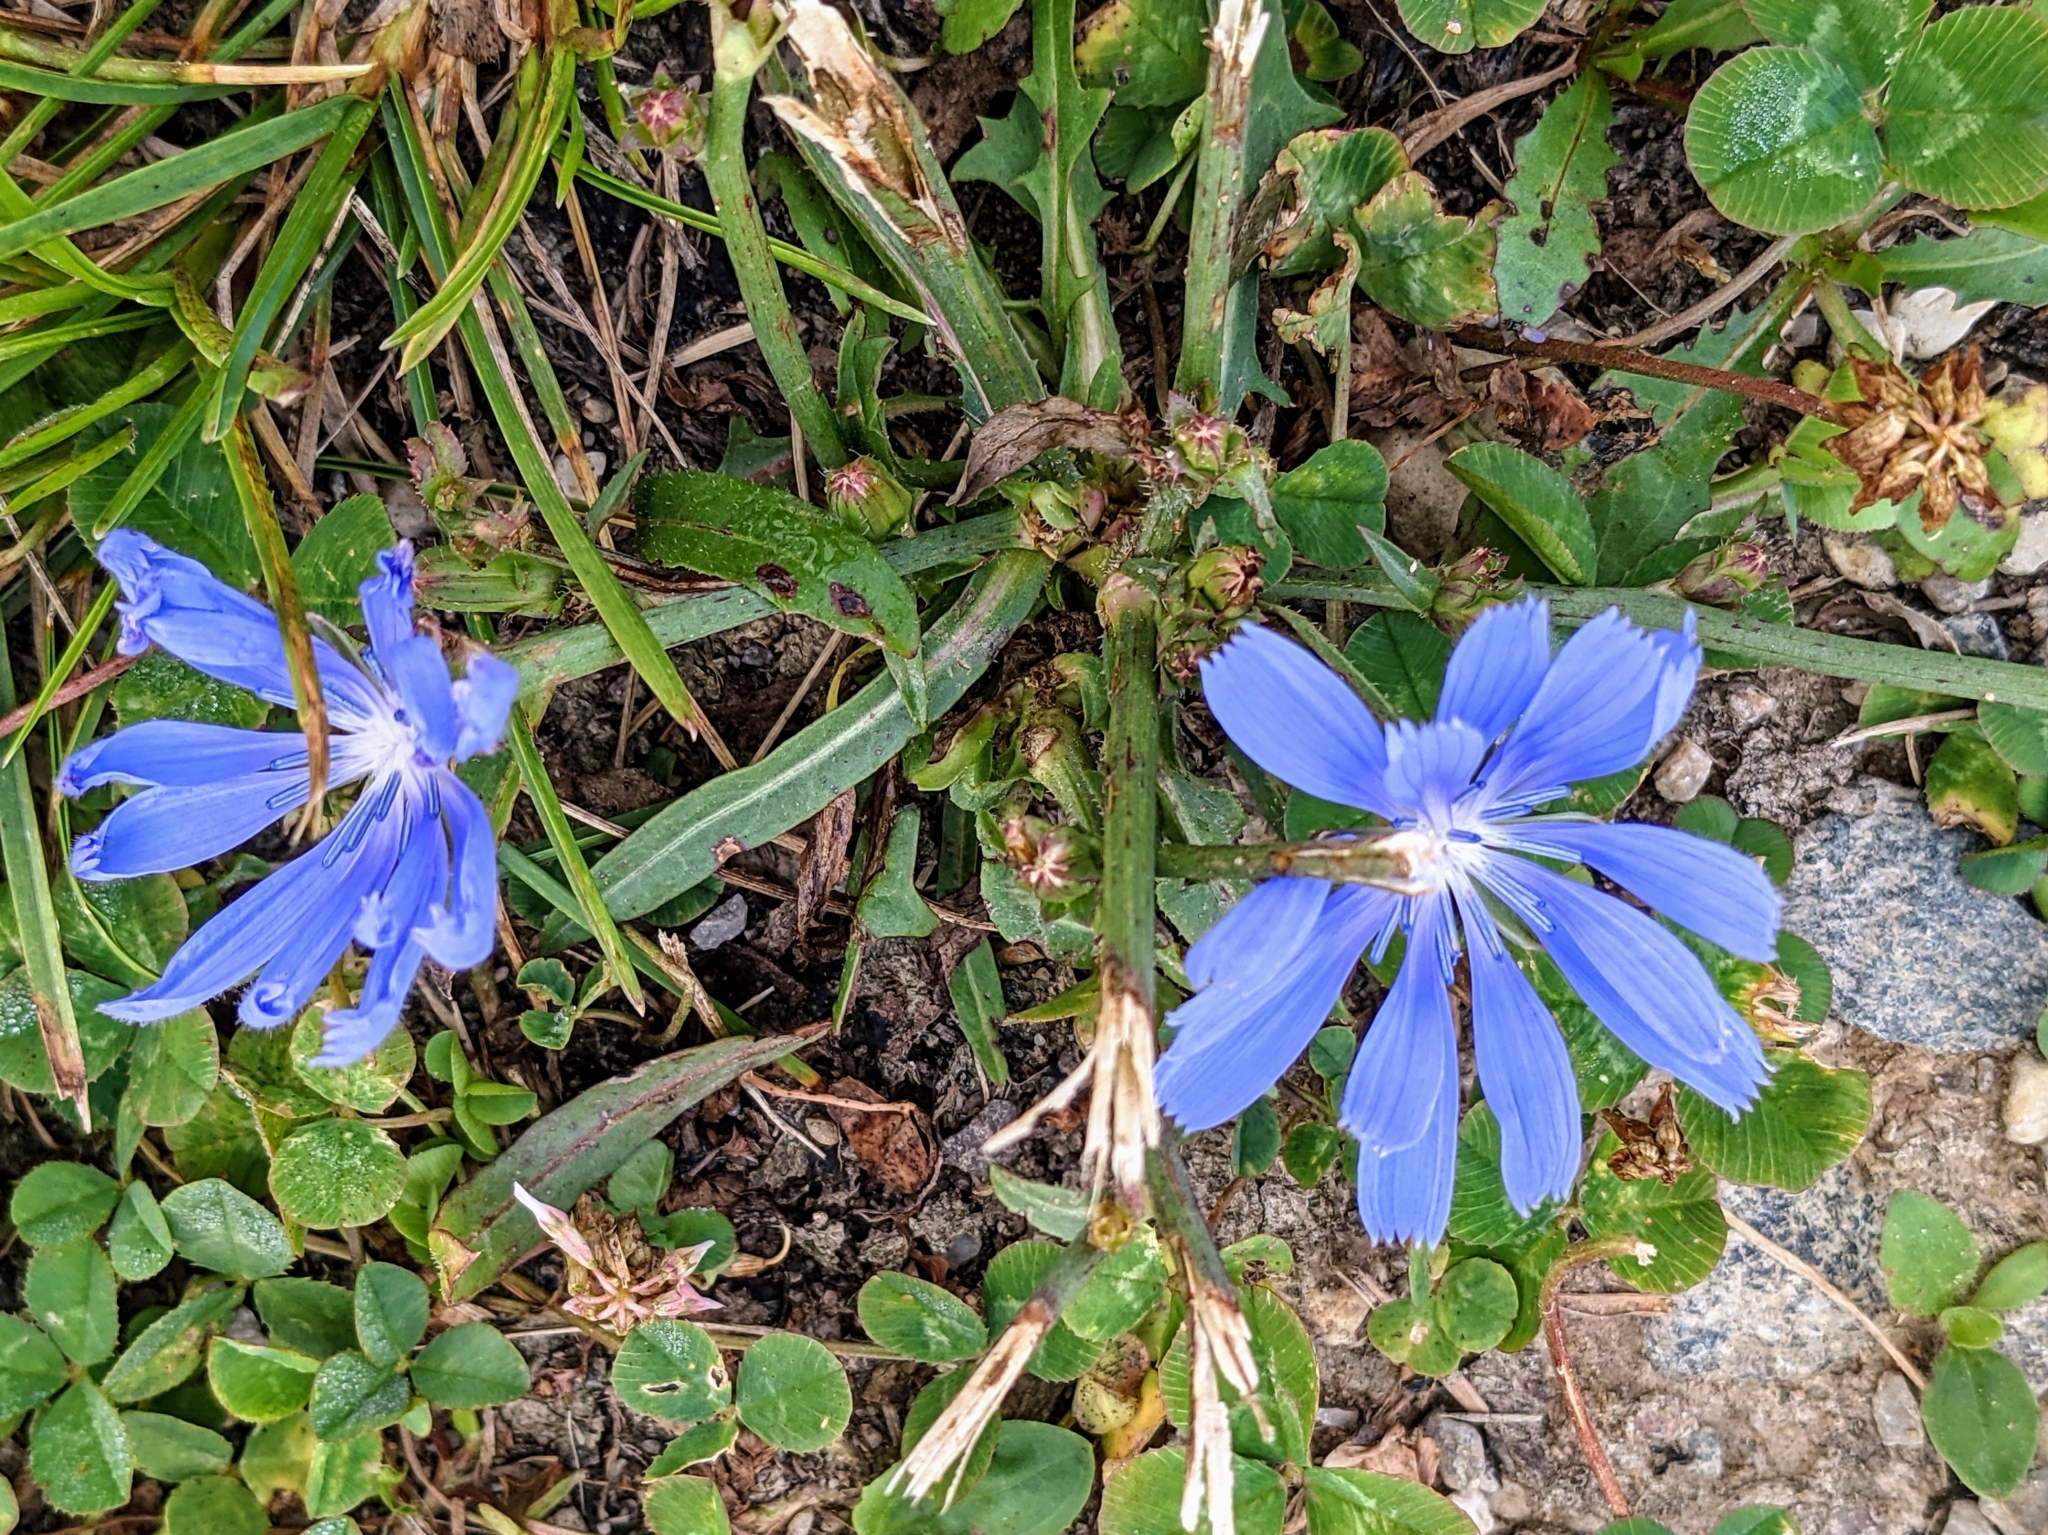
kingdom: Plantae
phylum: Tracheophyta
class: Magnoliopsida
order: Asterales
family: Asteraceae
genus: Cichorium
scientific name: Cichorium intybus
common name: Chicory
